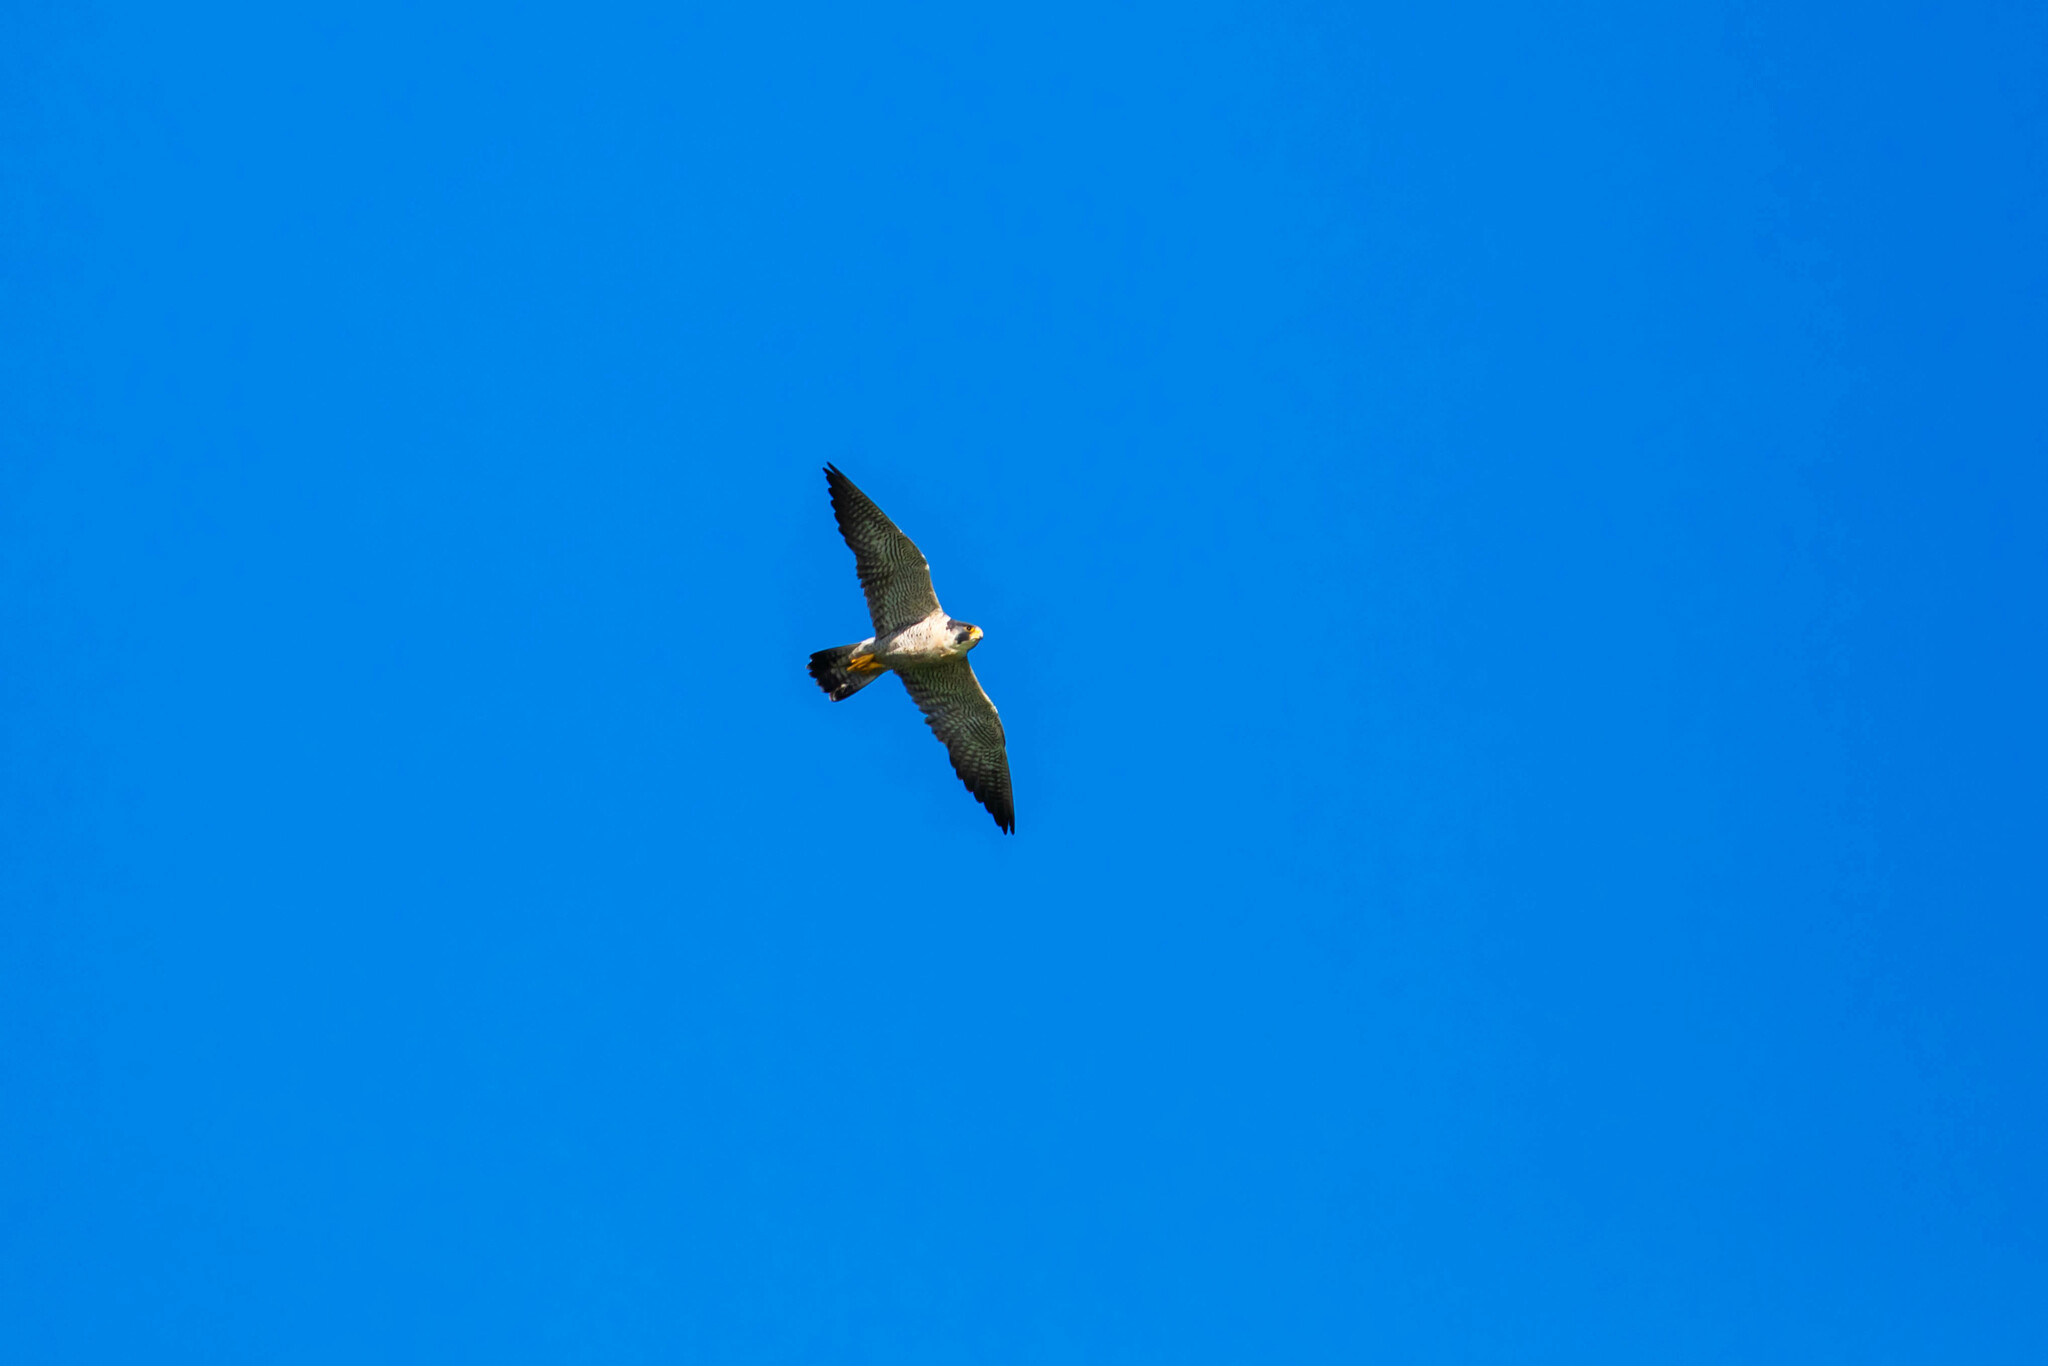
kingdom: Animalia
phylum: Chordata
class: Aves
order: Falconiformes
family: Falconidae
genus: Falco
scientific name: Falco peregrinus
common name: Peregrine falcon
